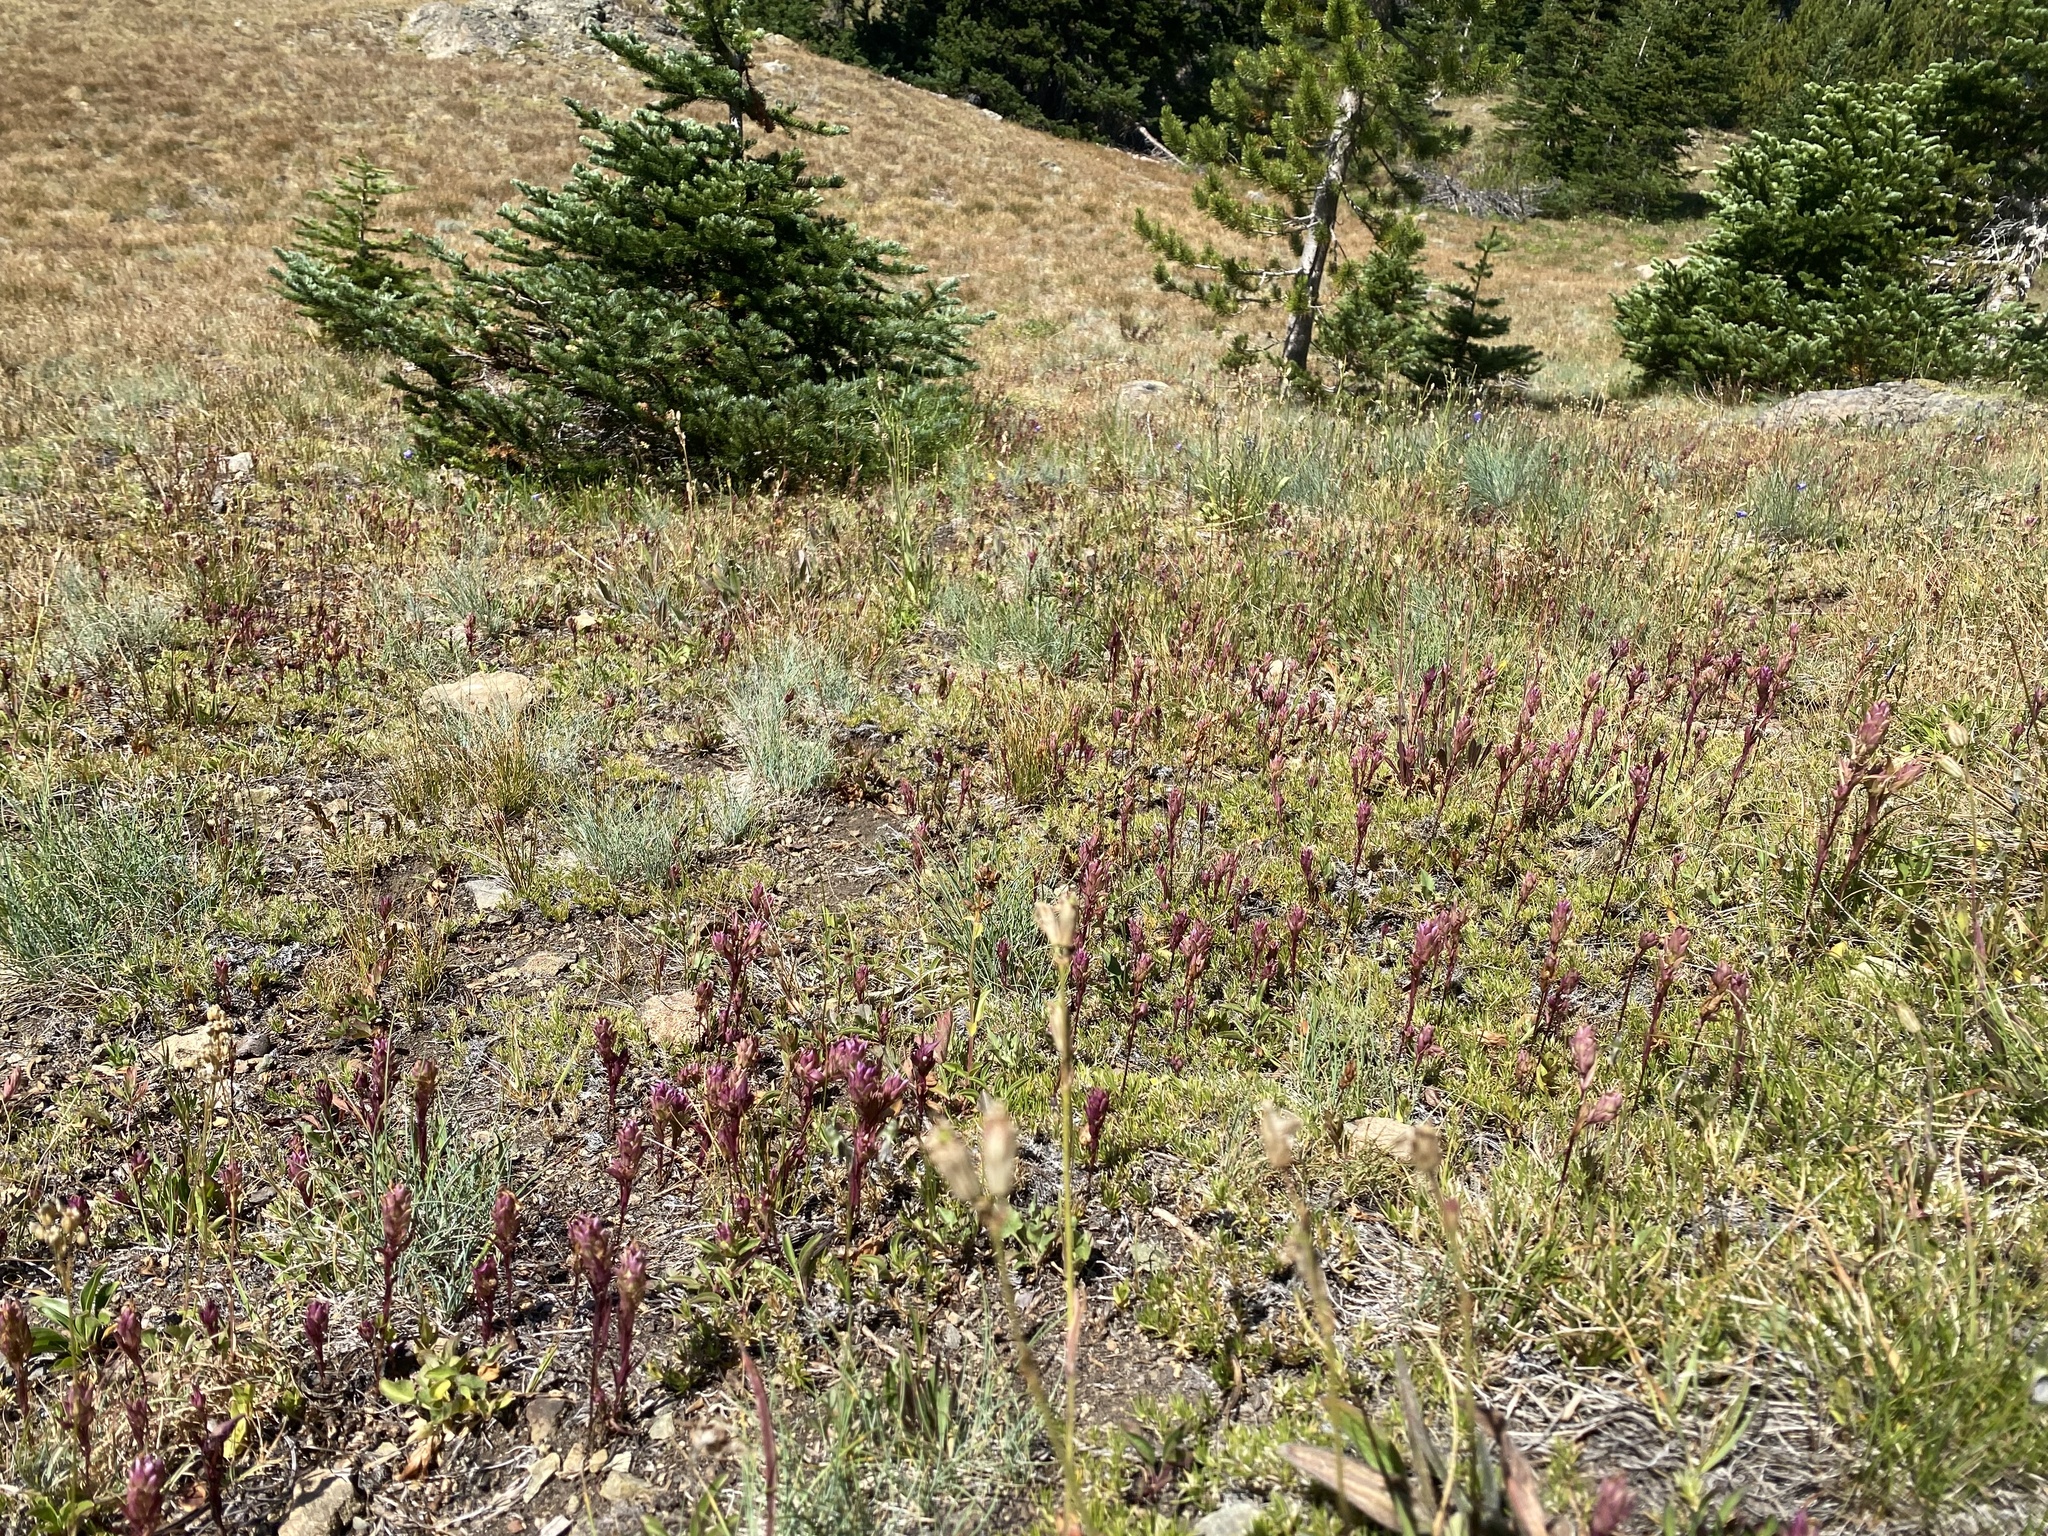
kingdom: Plantae
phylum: Tracheophyta
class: Magnoliopsida
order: Lamiales
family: Orobanchaceae
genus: Orthocarpus
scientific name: Orthocarpus imbricatus
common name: Mountain owl's-clover
